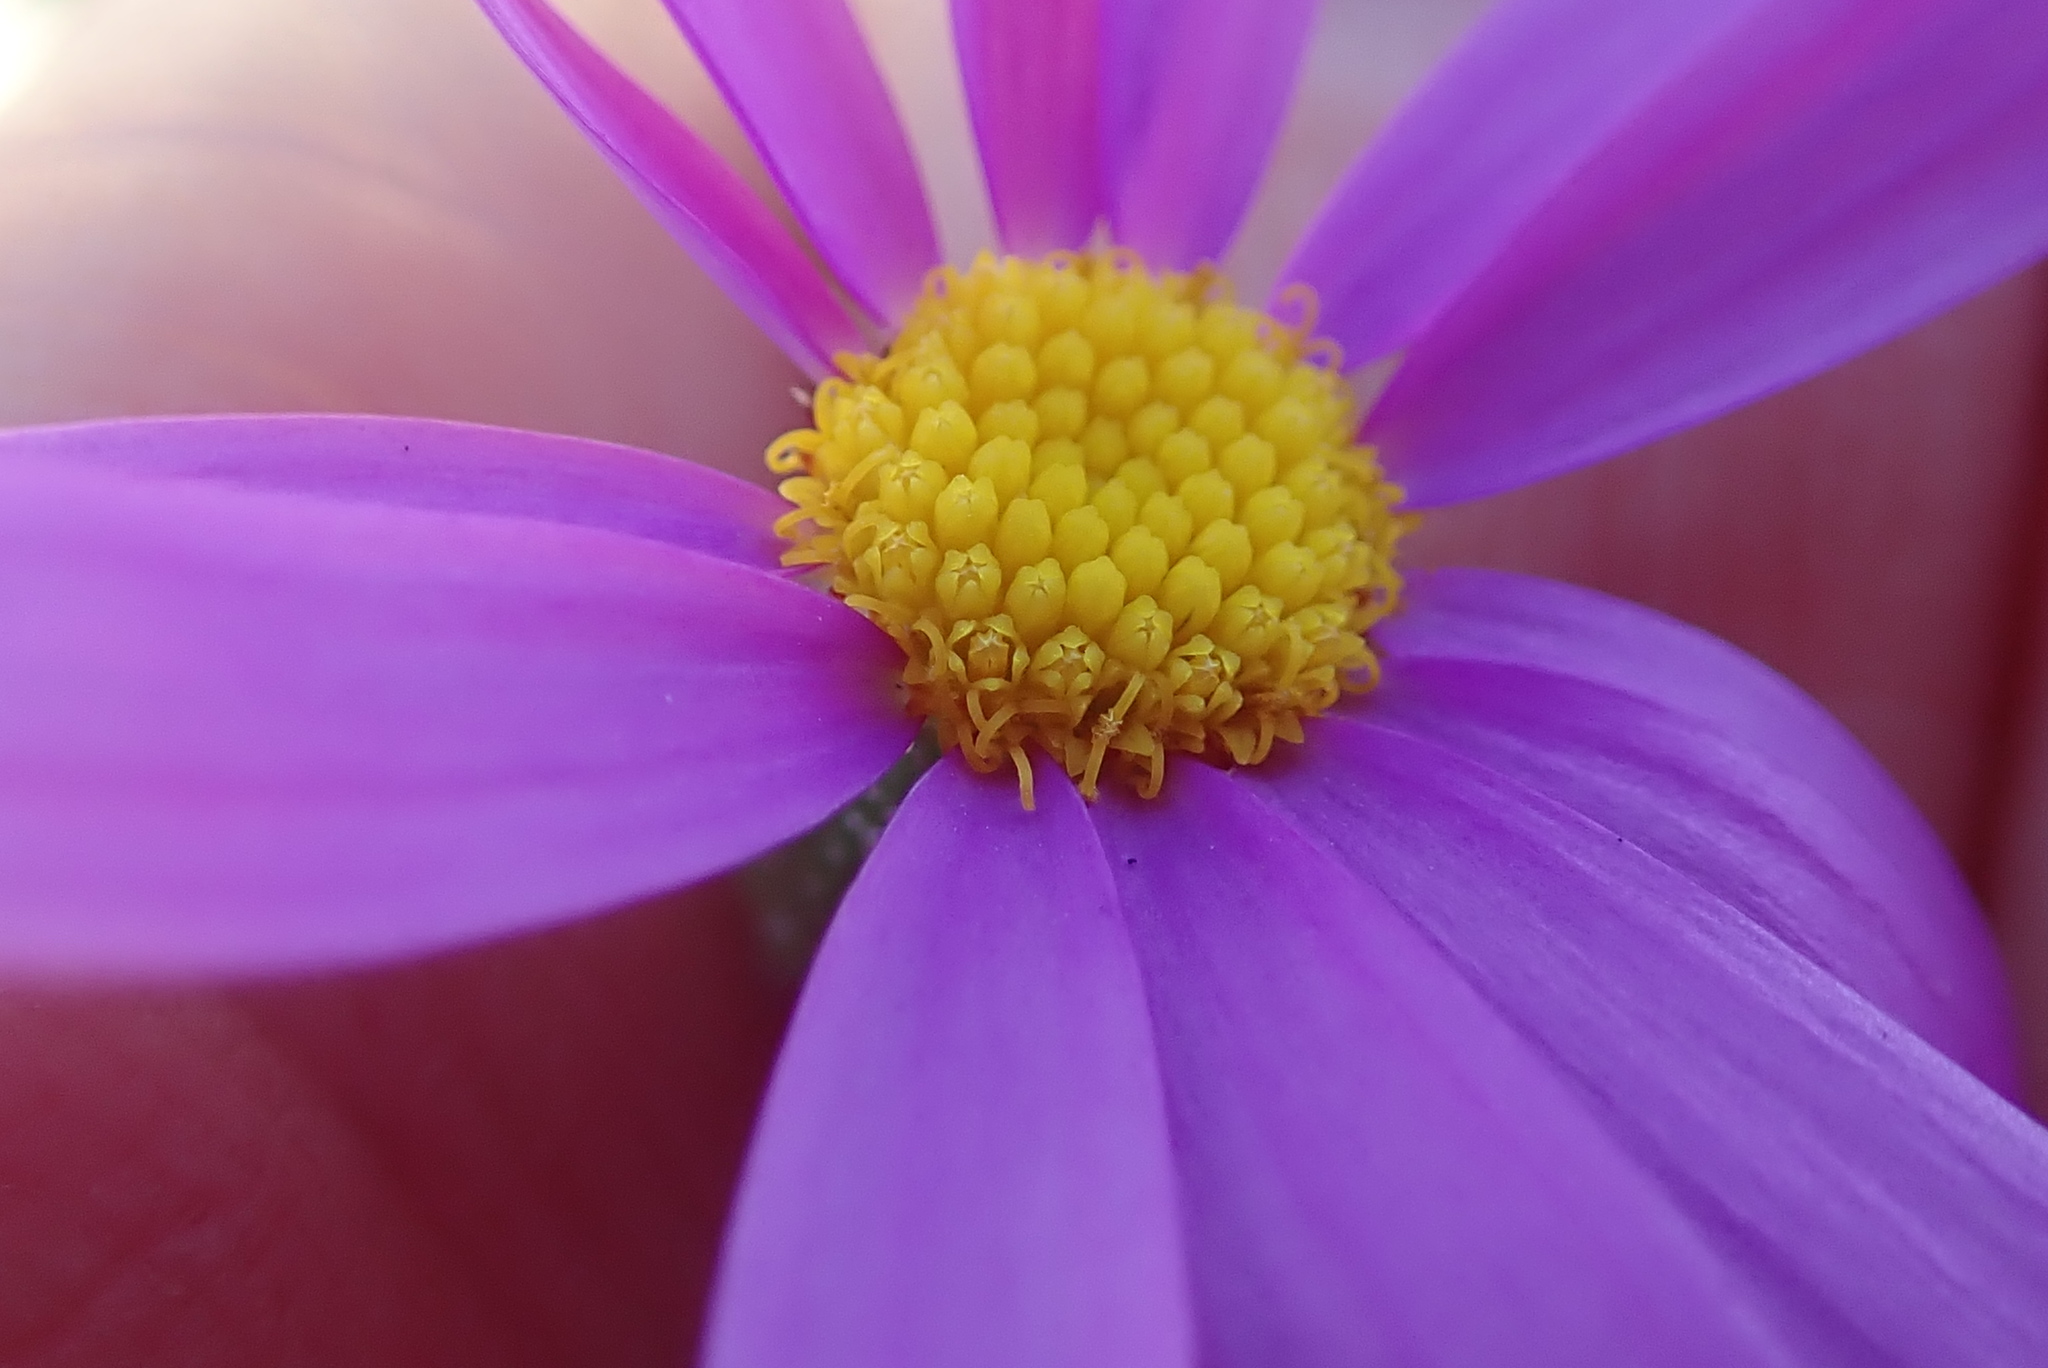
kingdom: Plantae
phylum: Tracheophyta
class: Magnoliopsida
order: Asterales
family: Asteraceae
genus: Senecio
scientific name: Senecio arenarius
